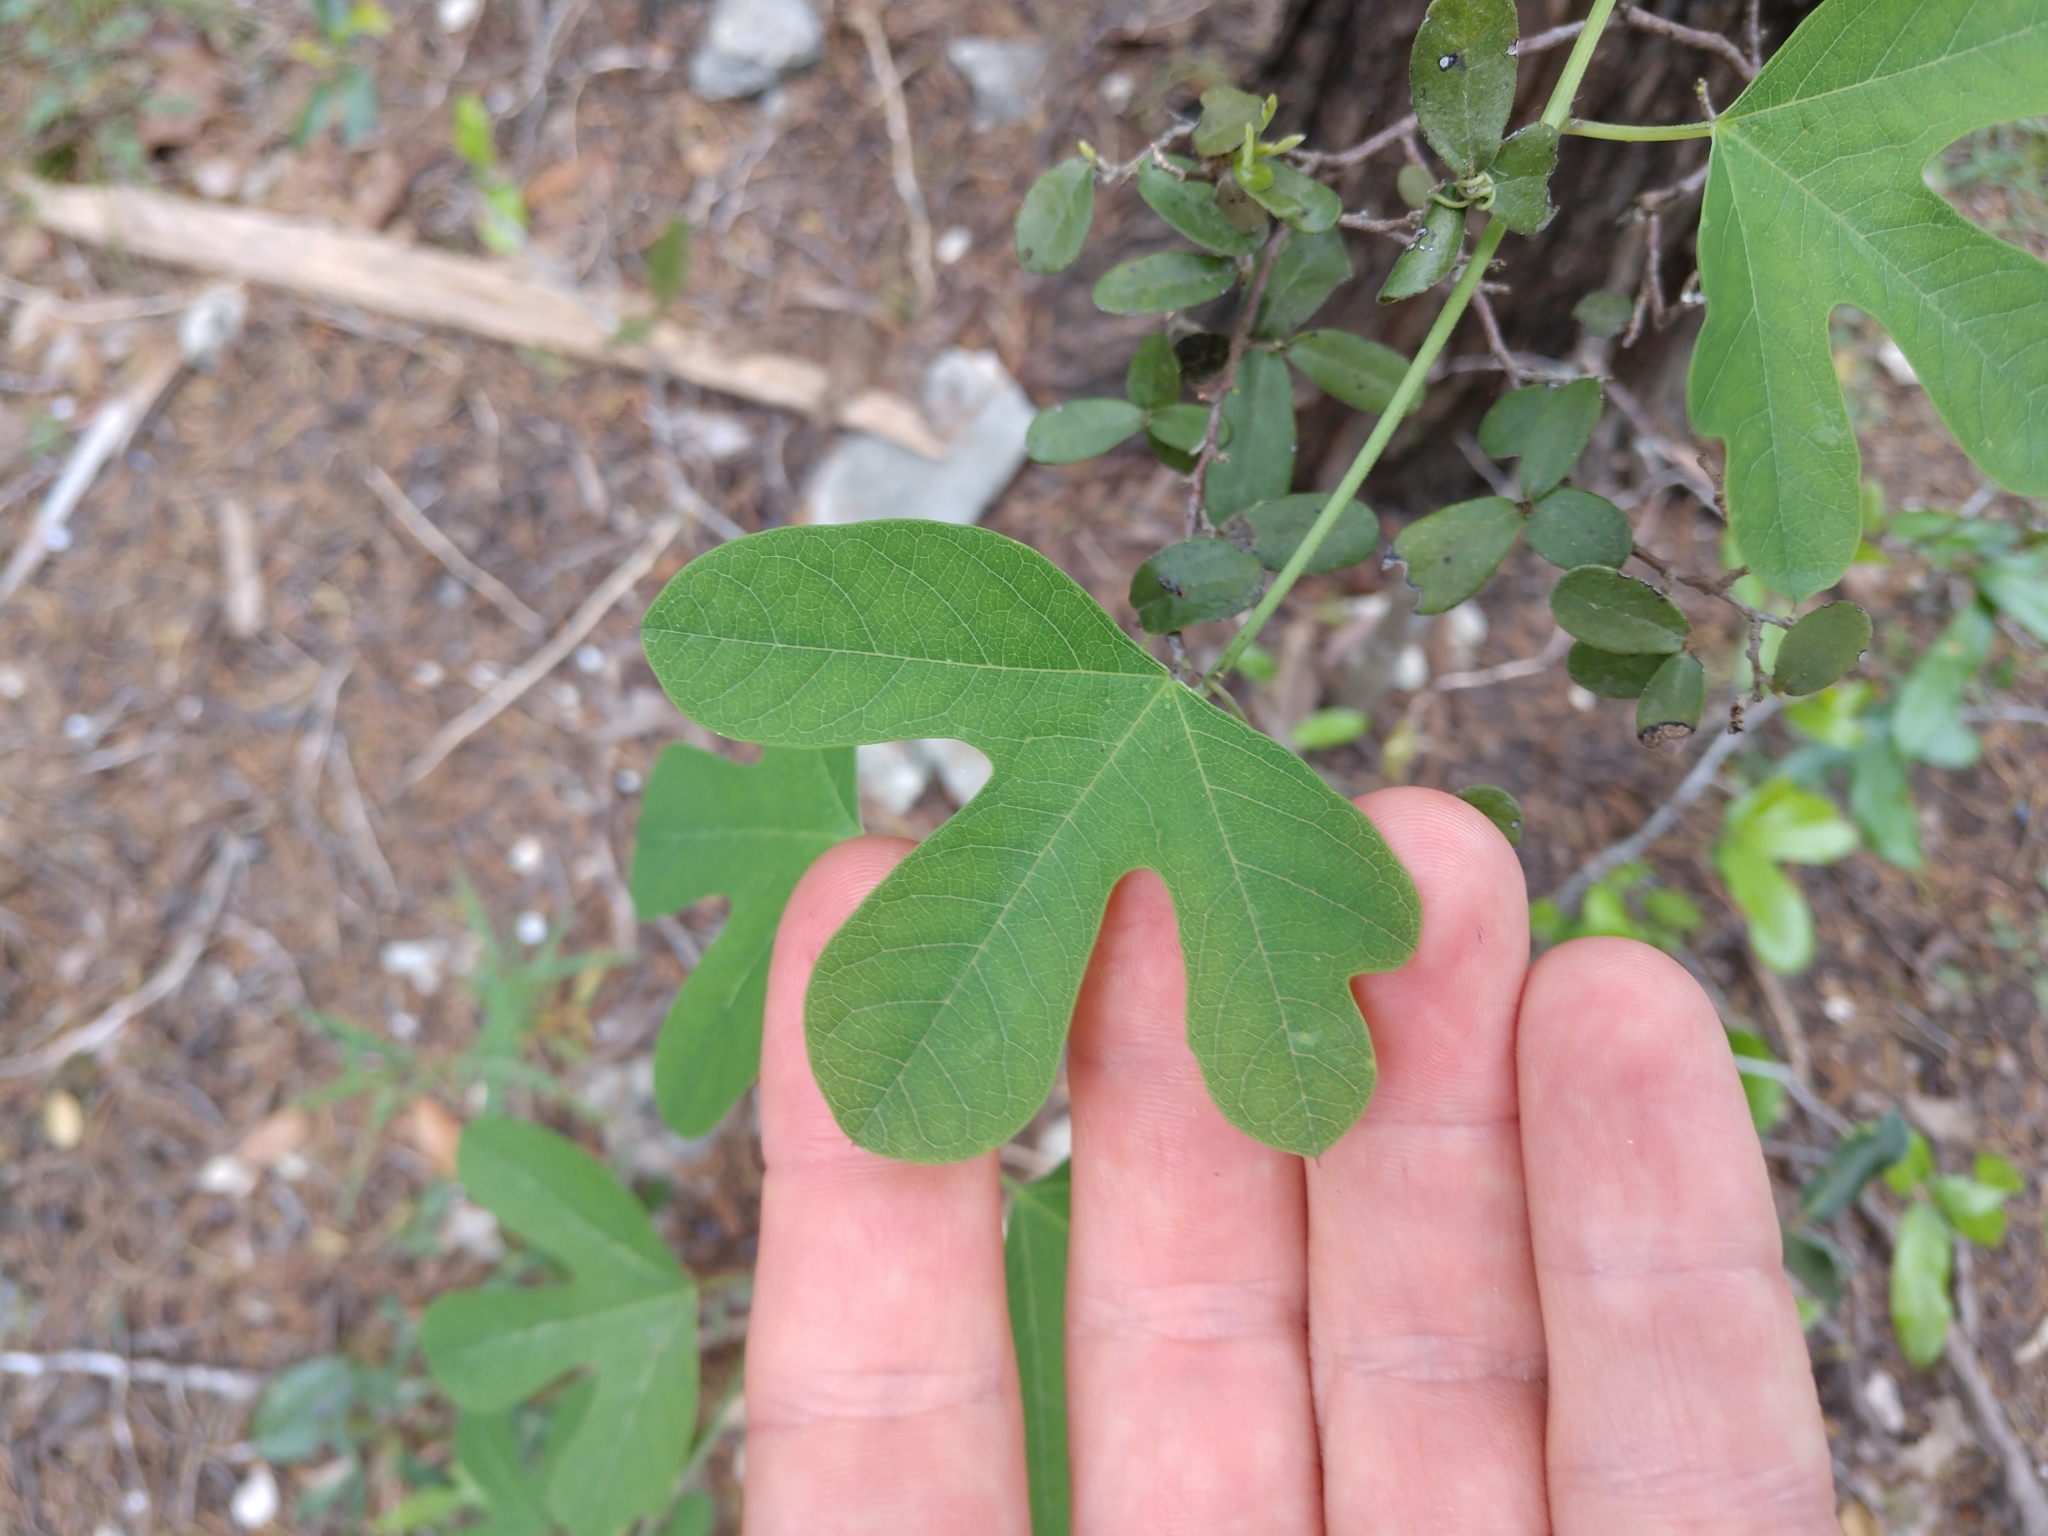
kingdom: Plantae
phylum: Tracheophyta
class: Magnoliopsida
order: Malpighiales
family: Passifloraceae
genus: Passiflora
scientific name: Passiflora affinis
